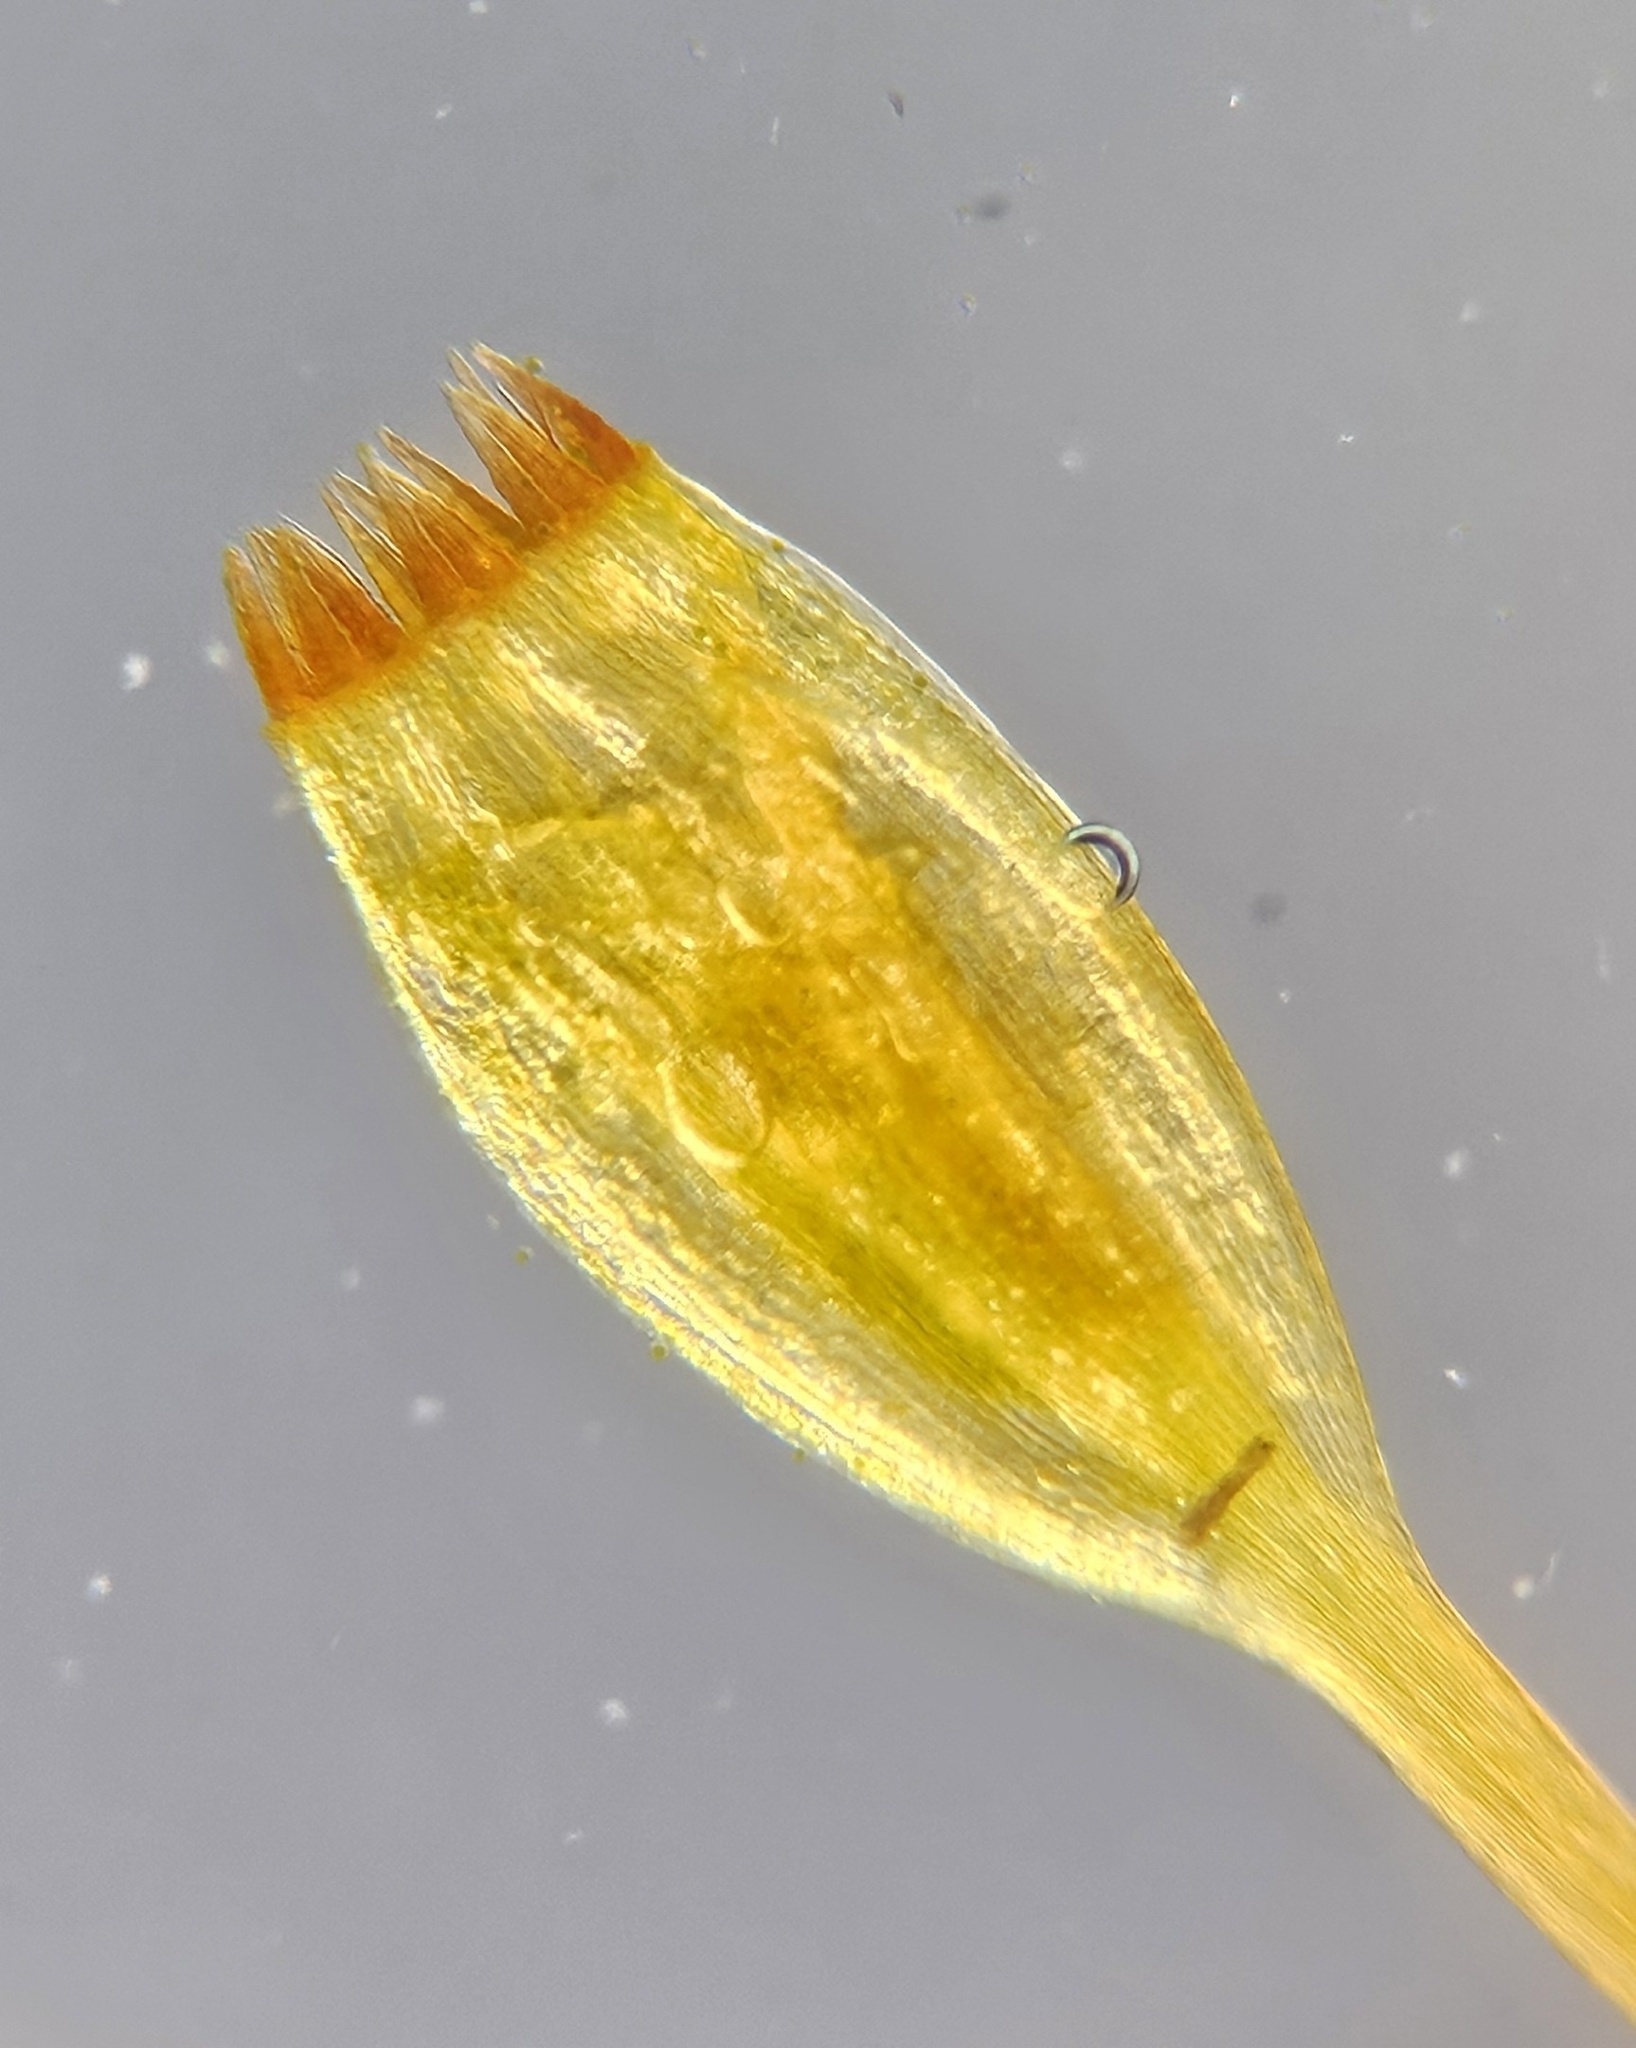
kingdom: Plantae
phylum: Bryophyta
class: Bryopsida
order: Orthotrichales
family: Orthotrichaceae
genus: Orthotrichum
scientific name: Orthotrichum pulchellum
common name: Elegant bristle-moss
